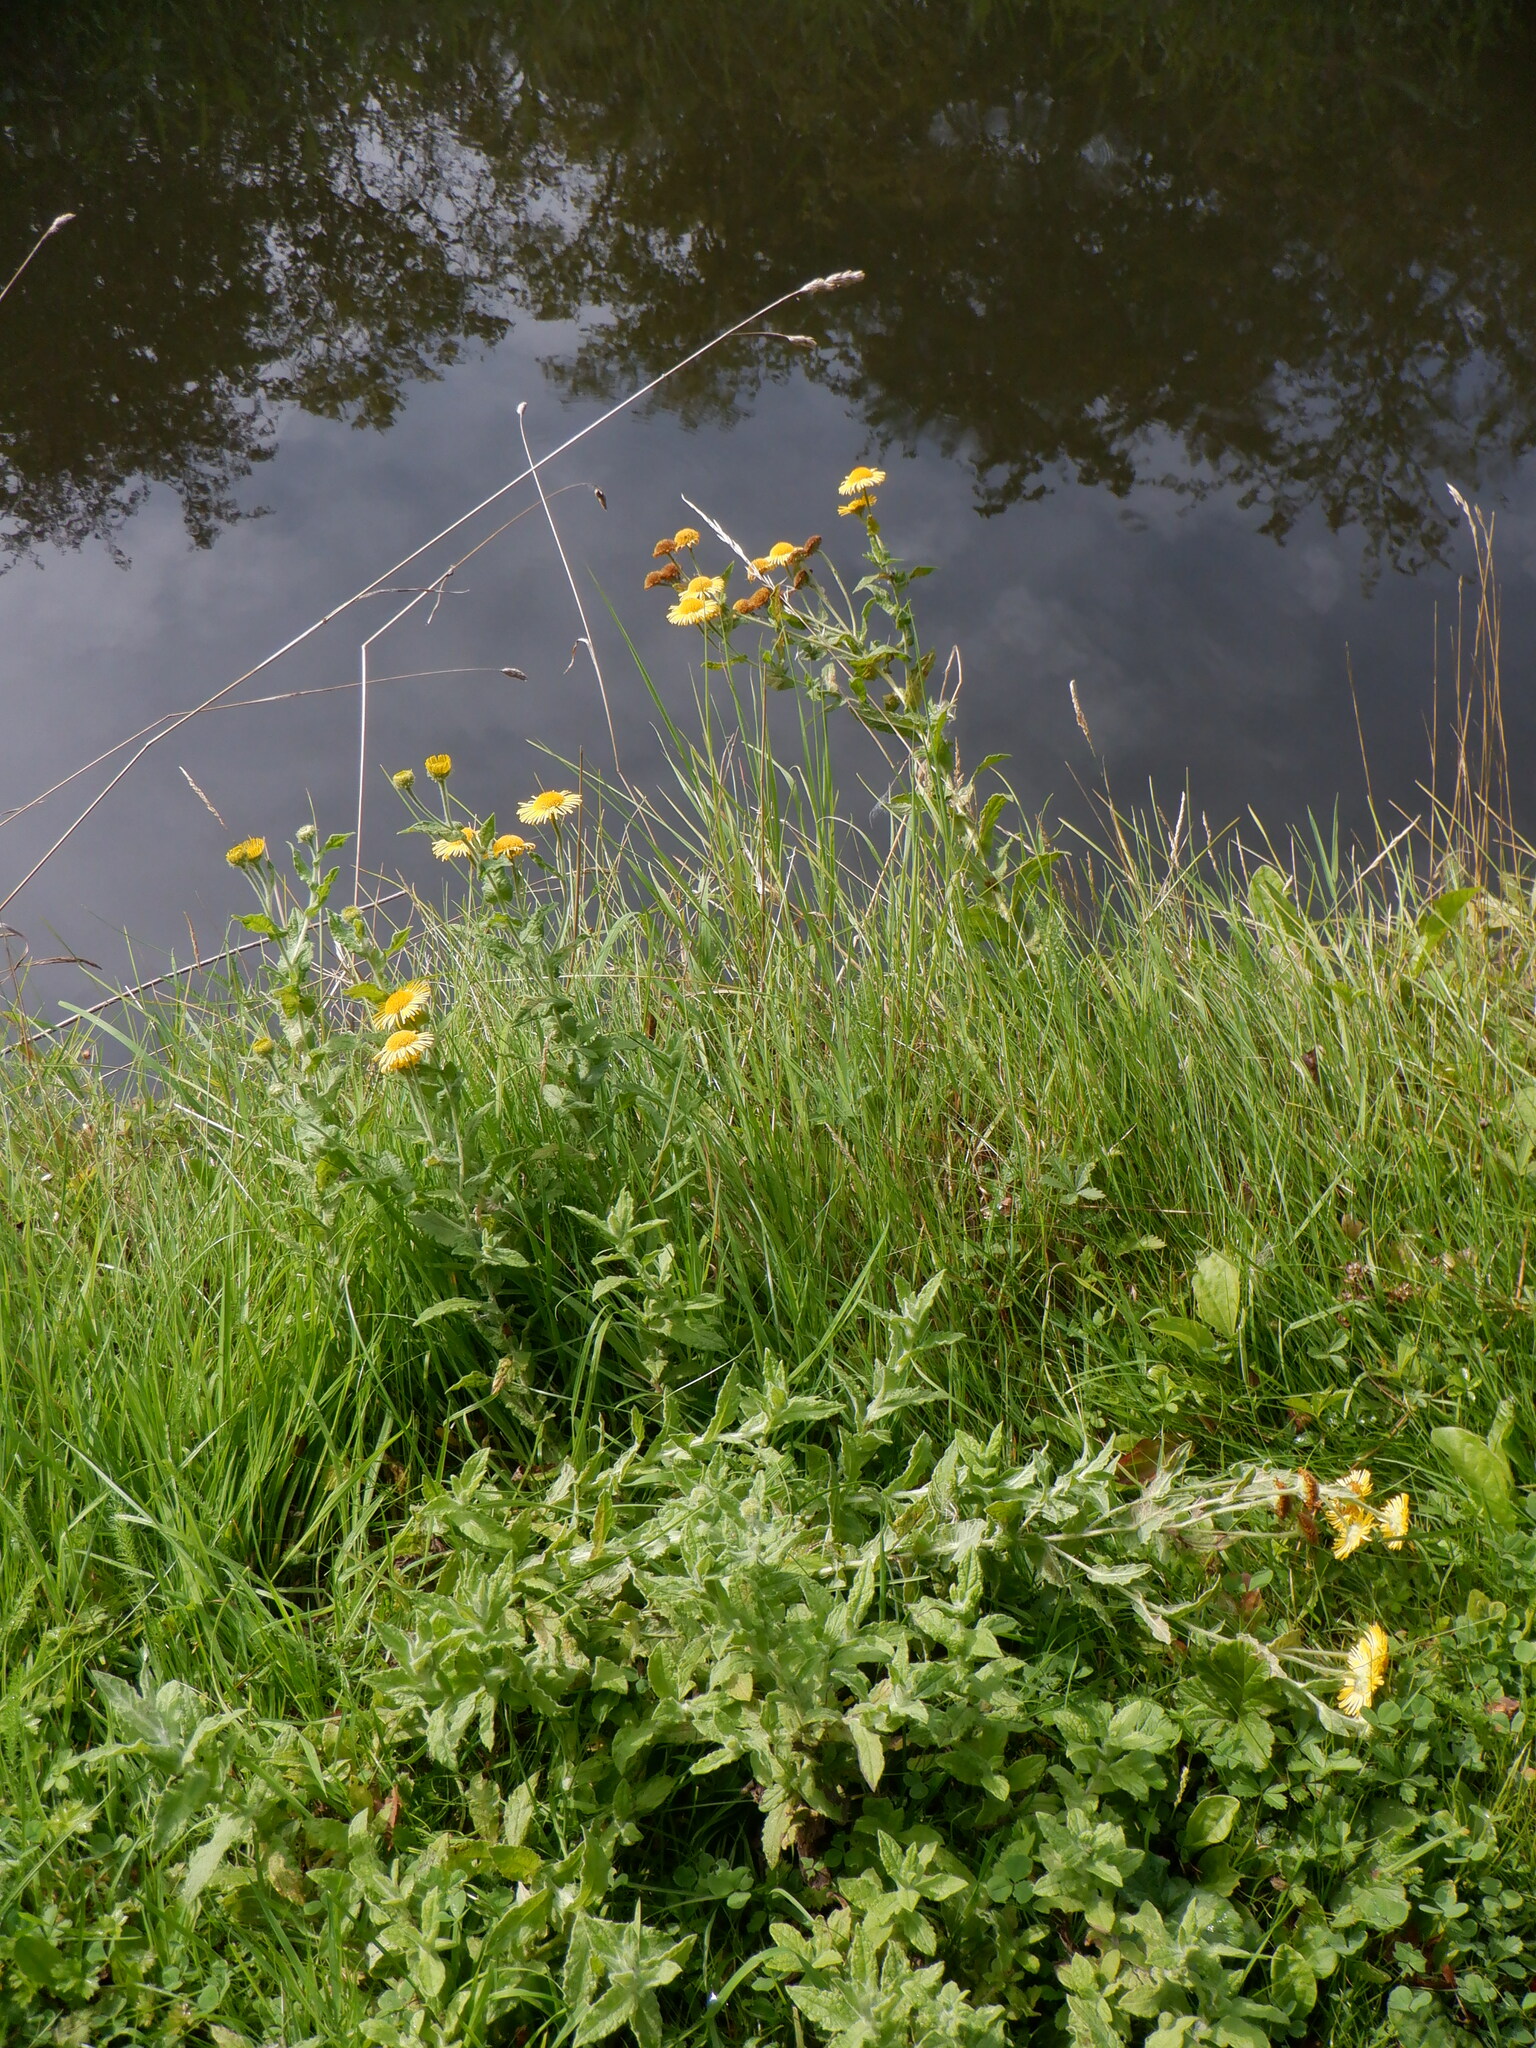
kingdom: Plantae
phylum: Tracheophyta
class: Magnoliopsida
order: Asterales
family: Asteraceae
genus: Pulicaria
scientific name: Pulicaria dysenterica
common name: Common fleabane
